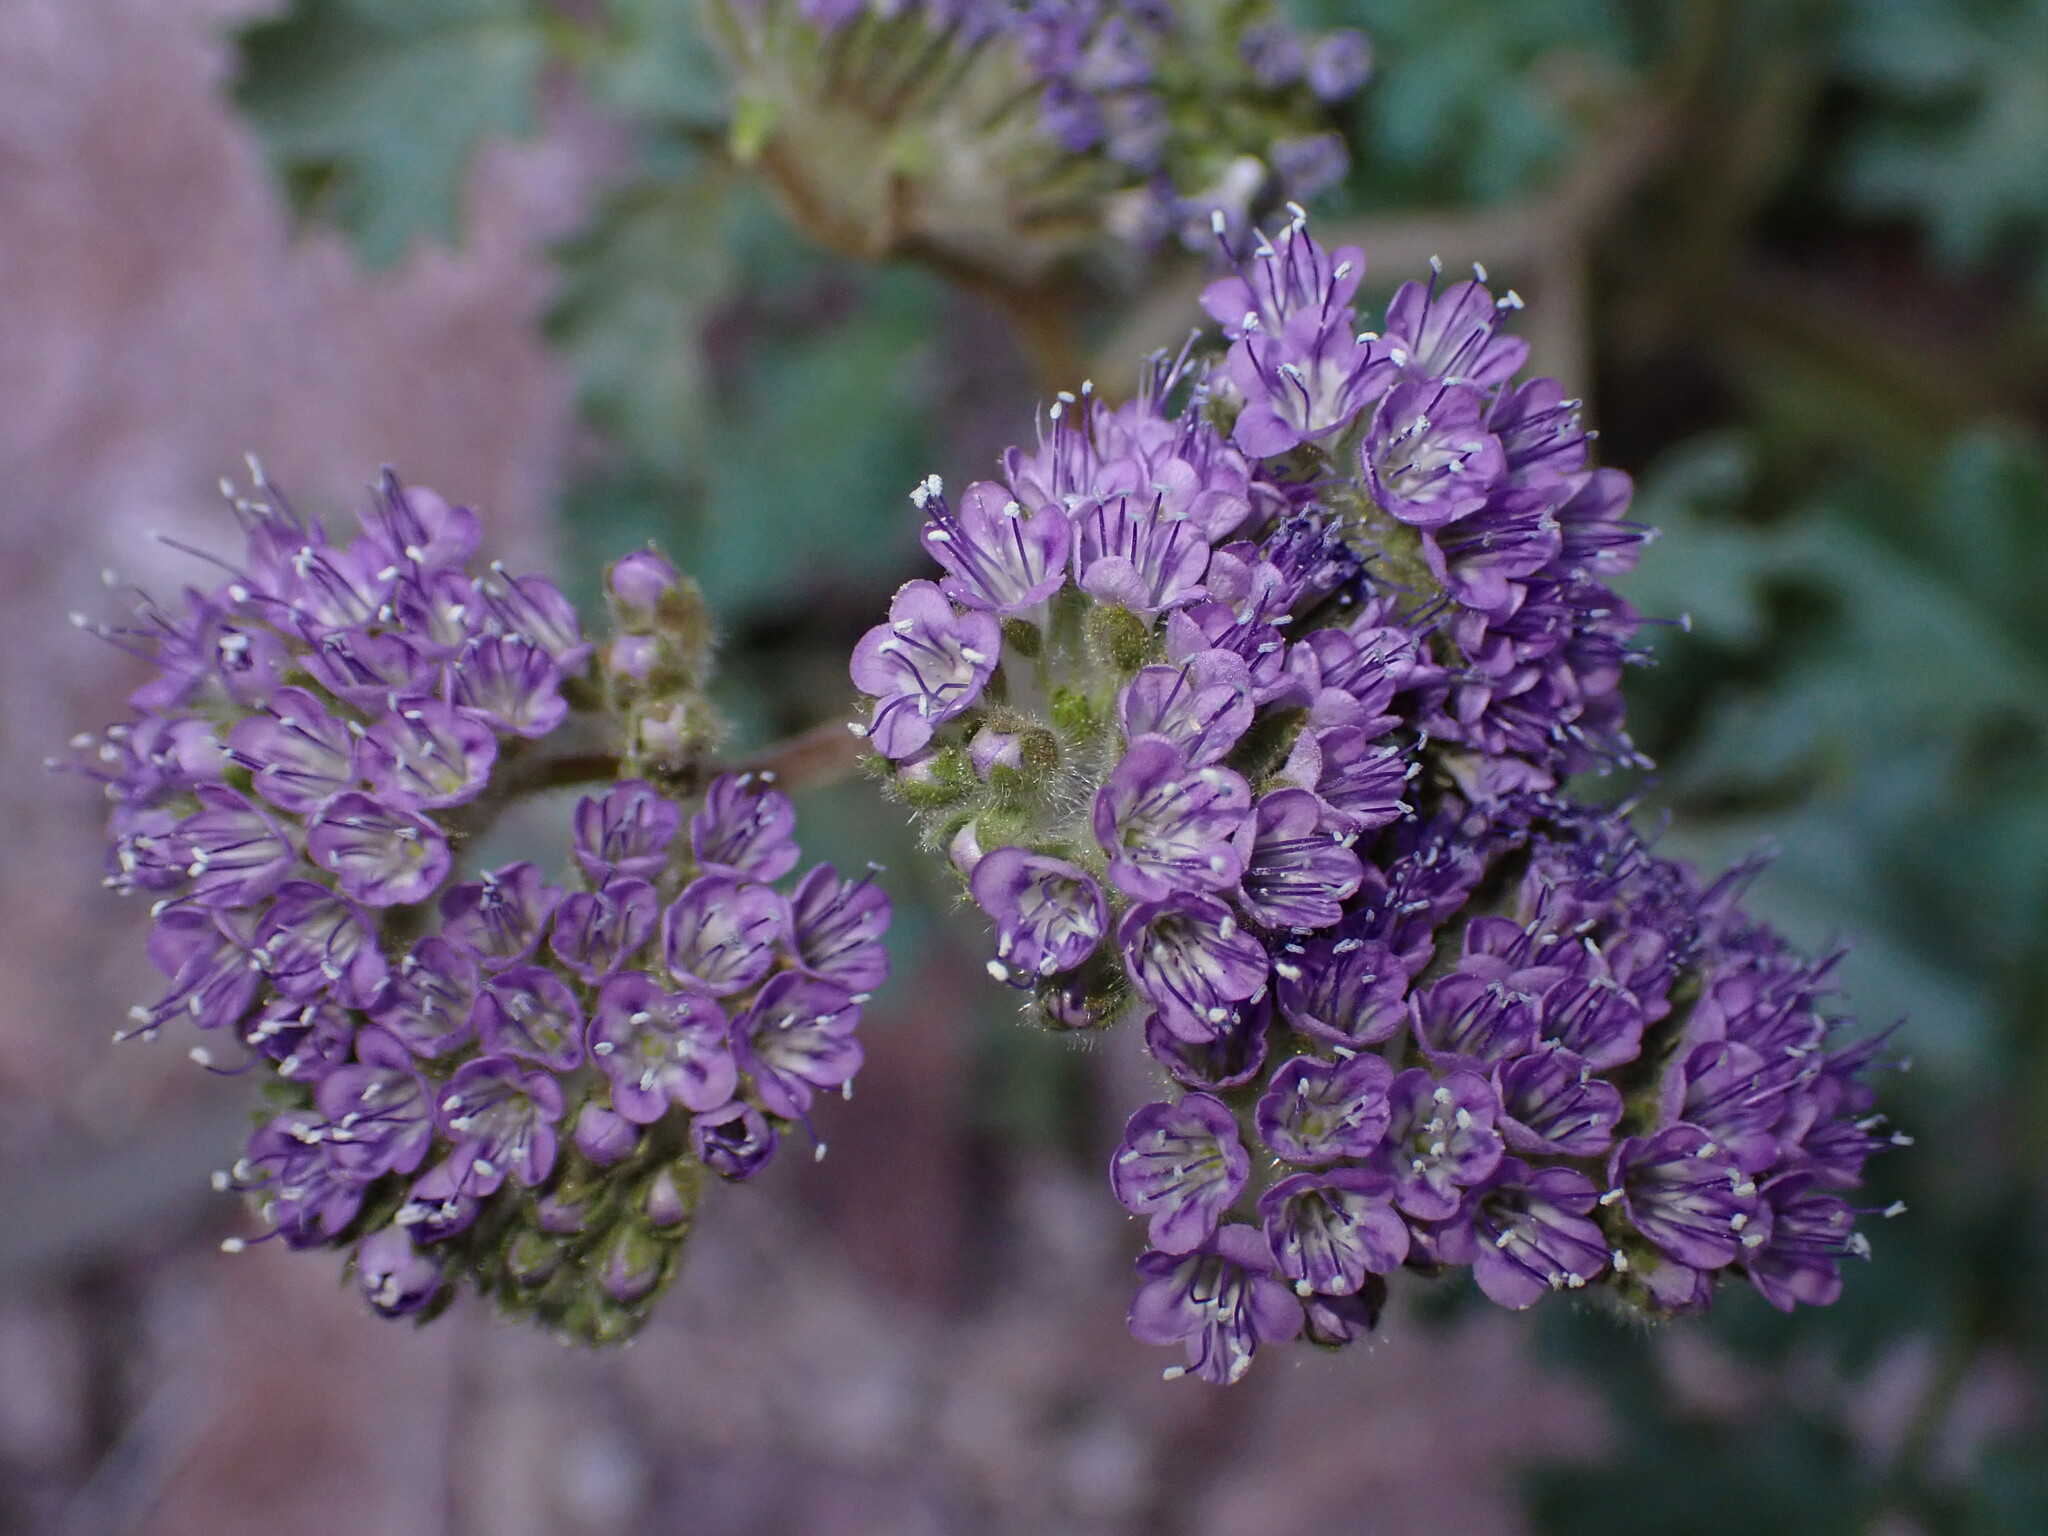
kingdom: Plantae
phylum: Tracheophyta
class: Magnoliopsida
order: Boraginales
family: Hydrophyllaceae
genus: Phacelia
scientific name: Phacelia pedicellata
